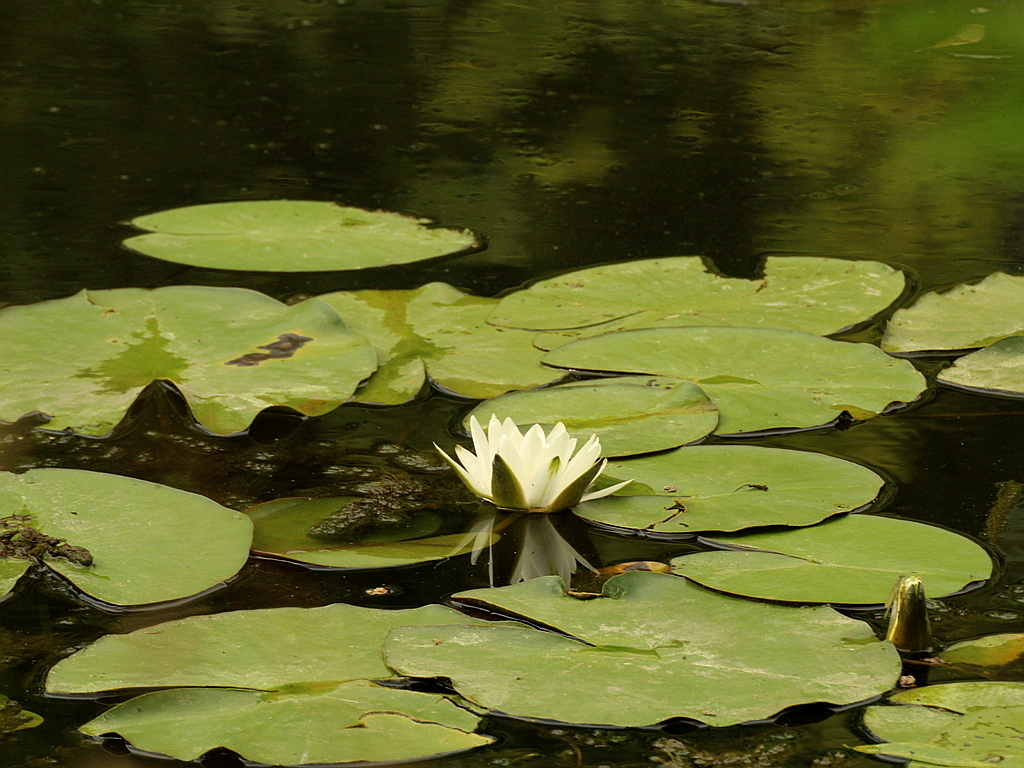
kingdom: Plantae
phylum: Tracheophyta
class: Magnoliopsida
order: Nymphaeales
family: Nymphaeaceae
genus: Nymphaea
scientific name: Nymphaea candida
